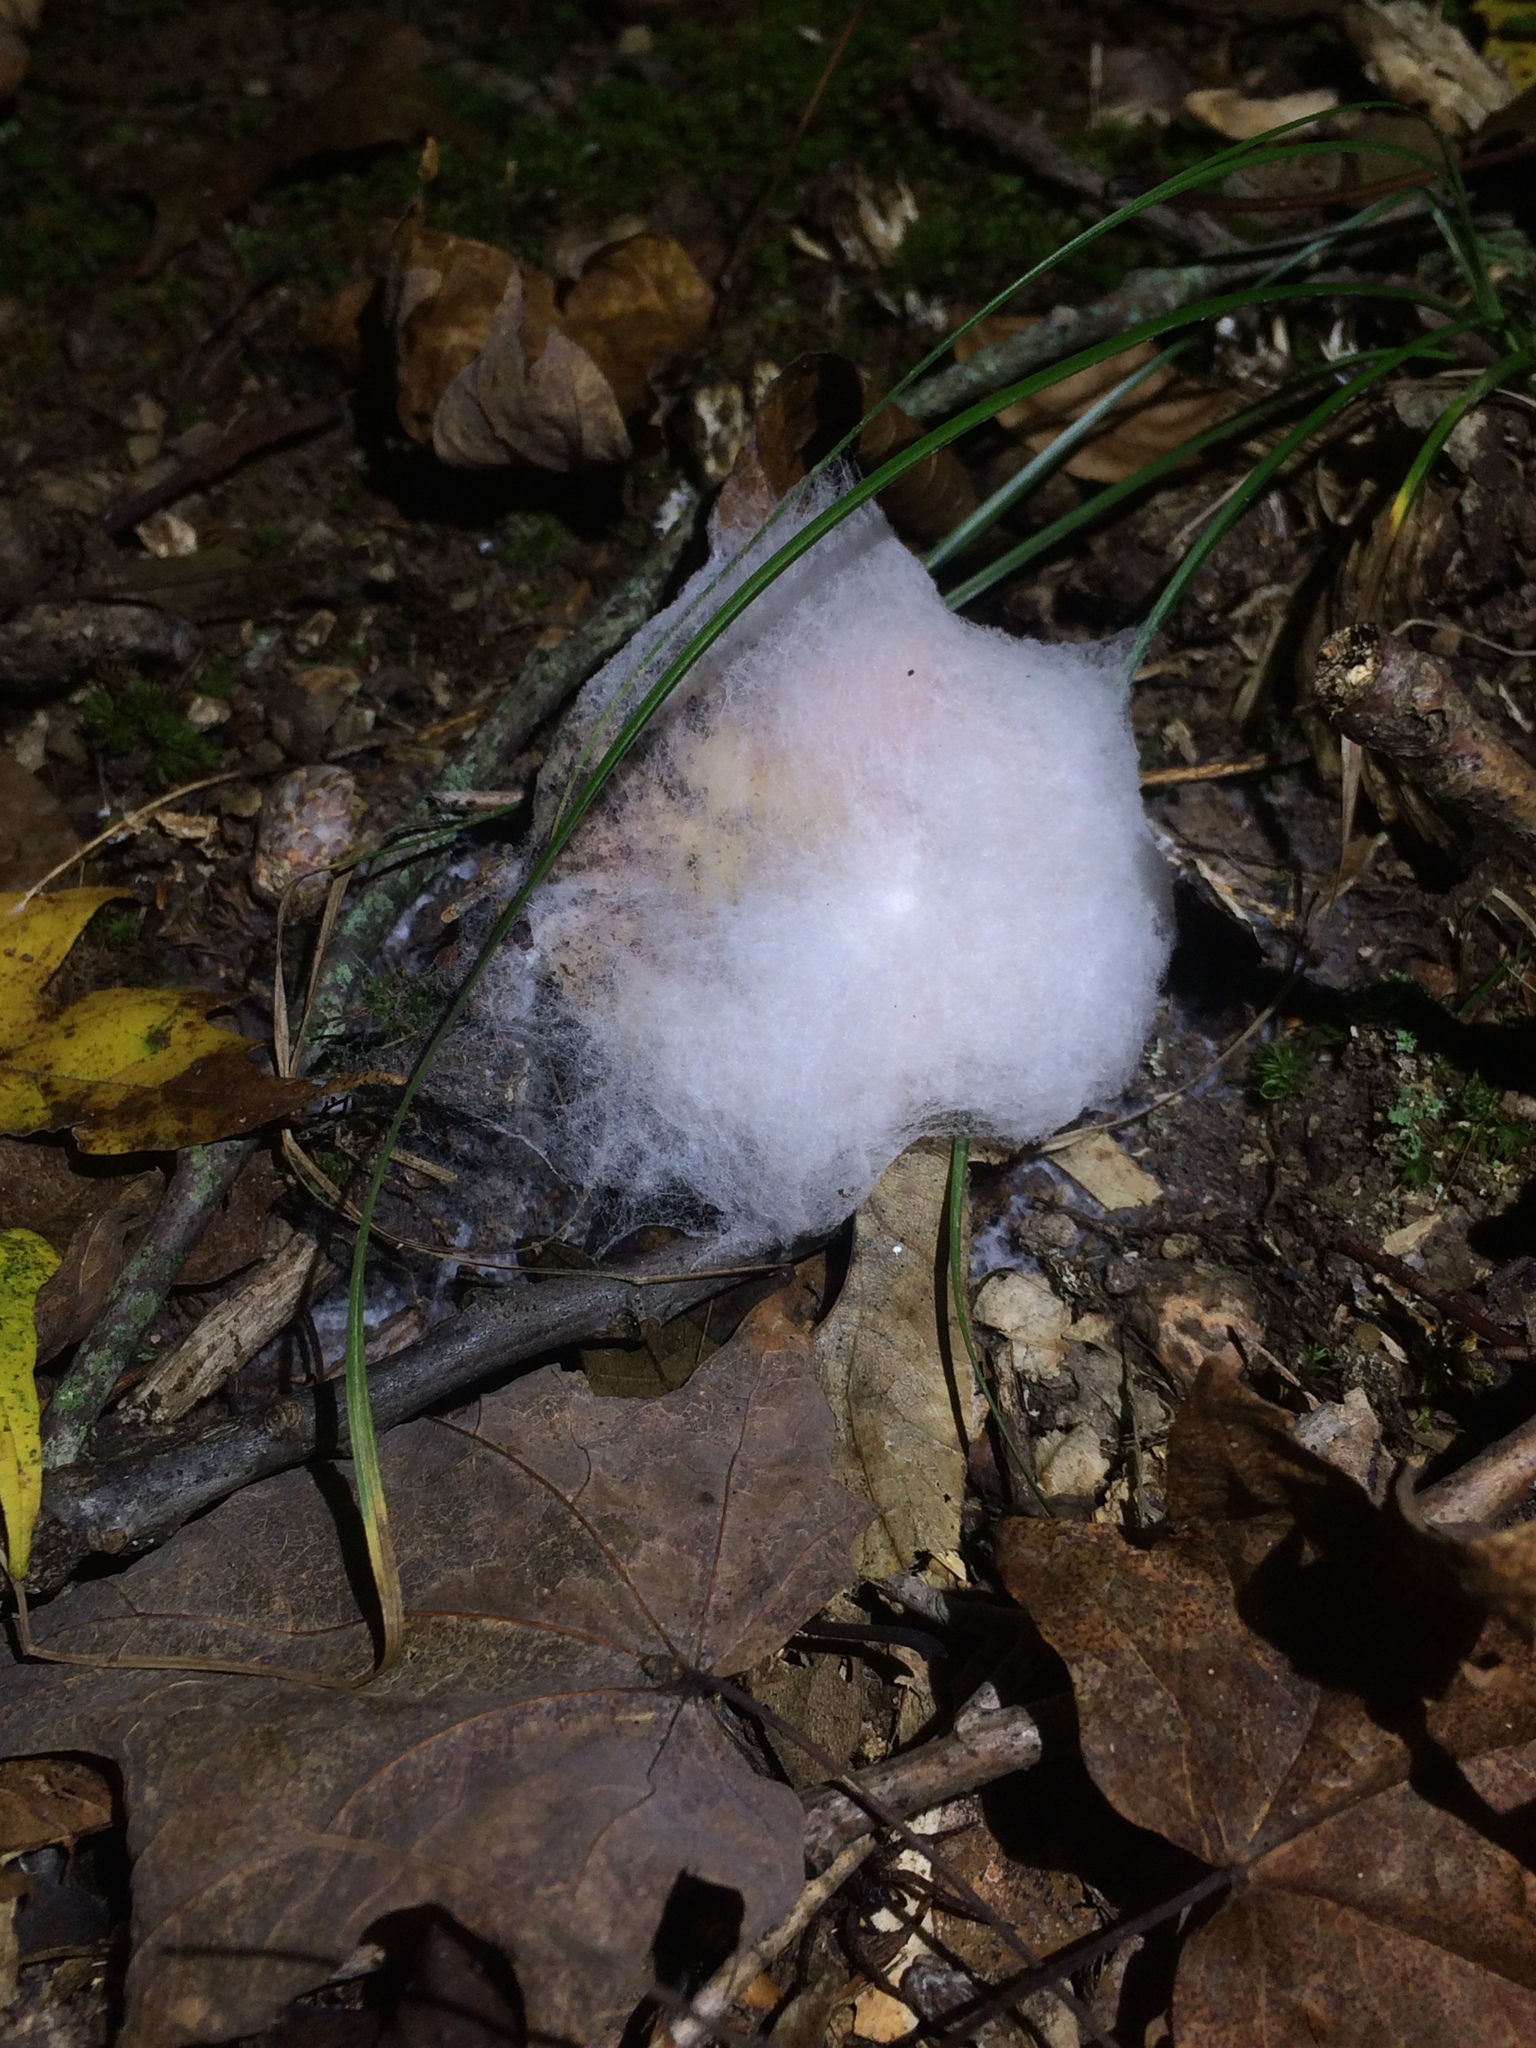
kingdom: Fungi
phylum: Ascomycota
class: Sordariomycetes
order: Hypocreales
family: Hypocreaceae
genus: Hypomyces
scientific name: Hypomyces armeniacus
